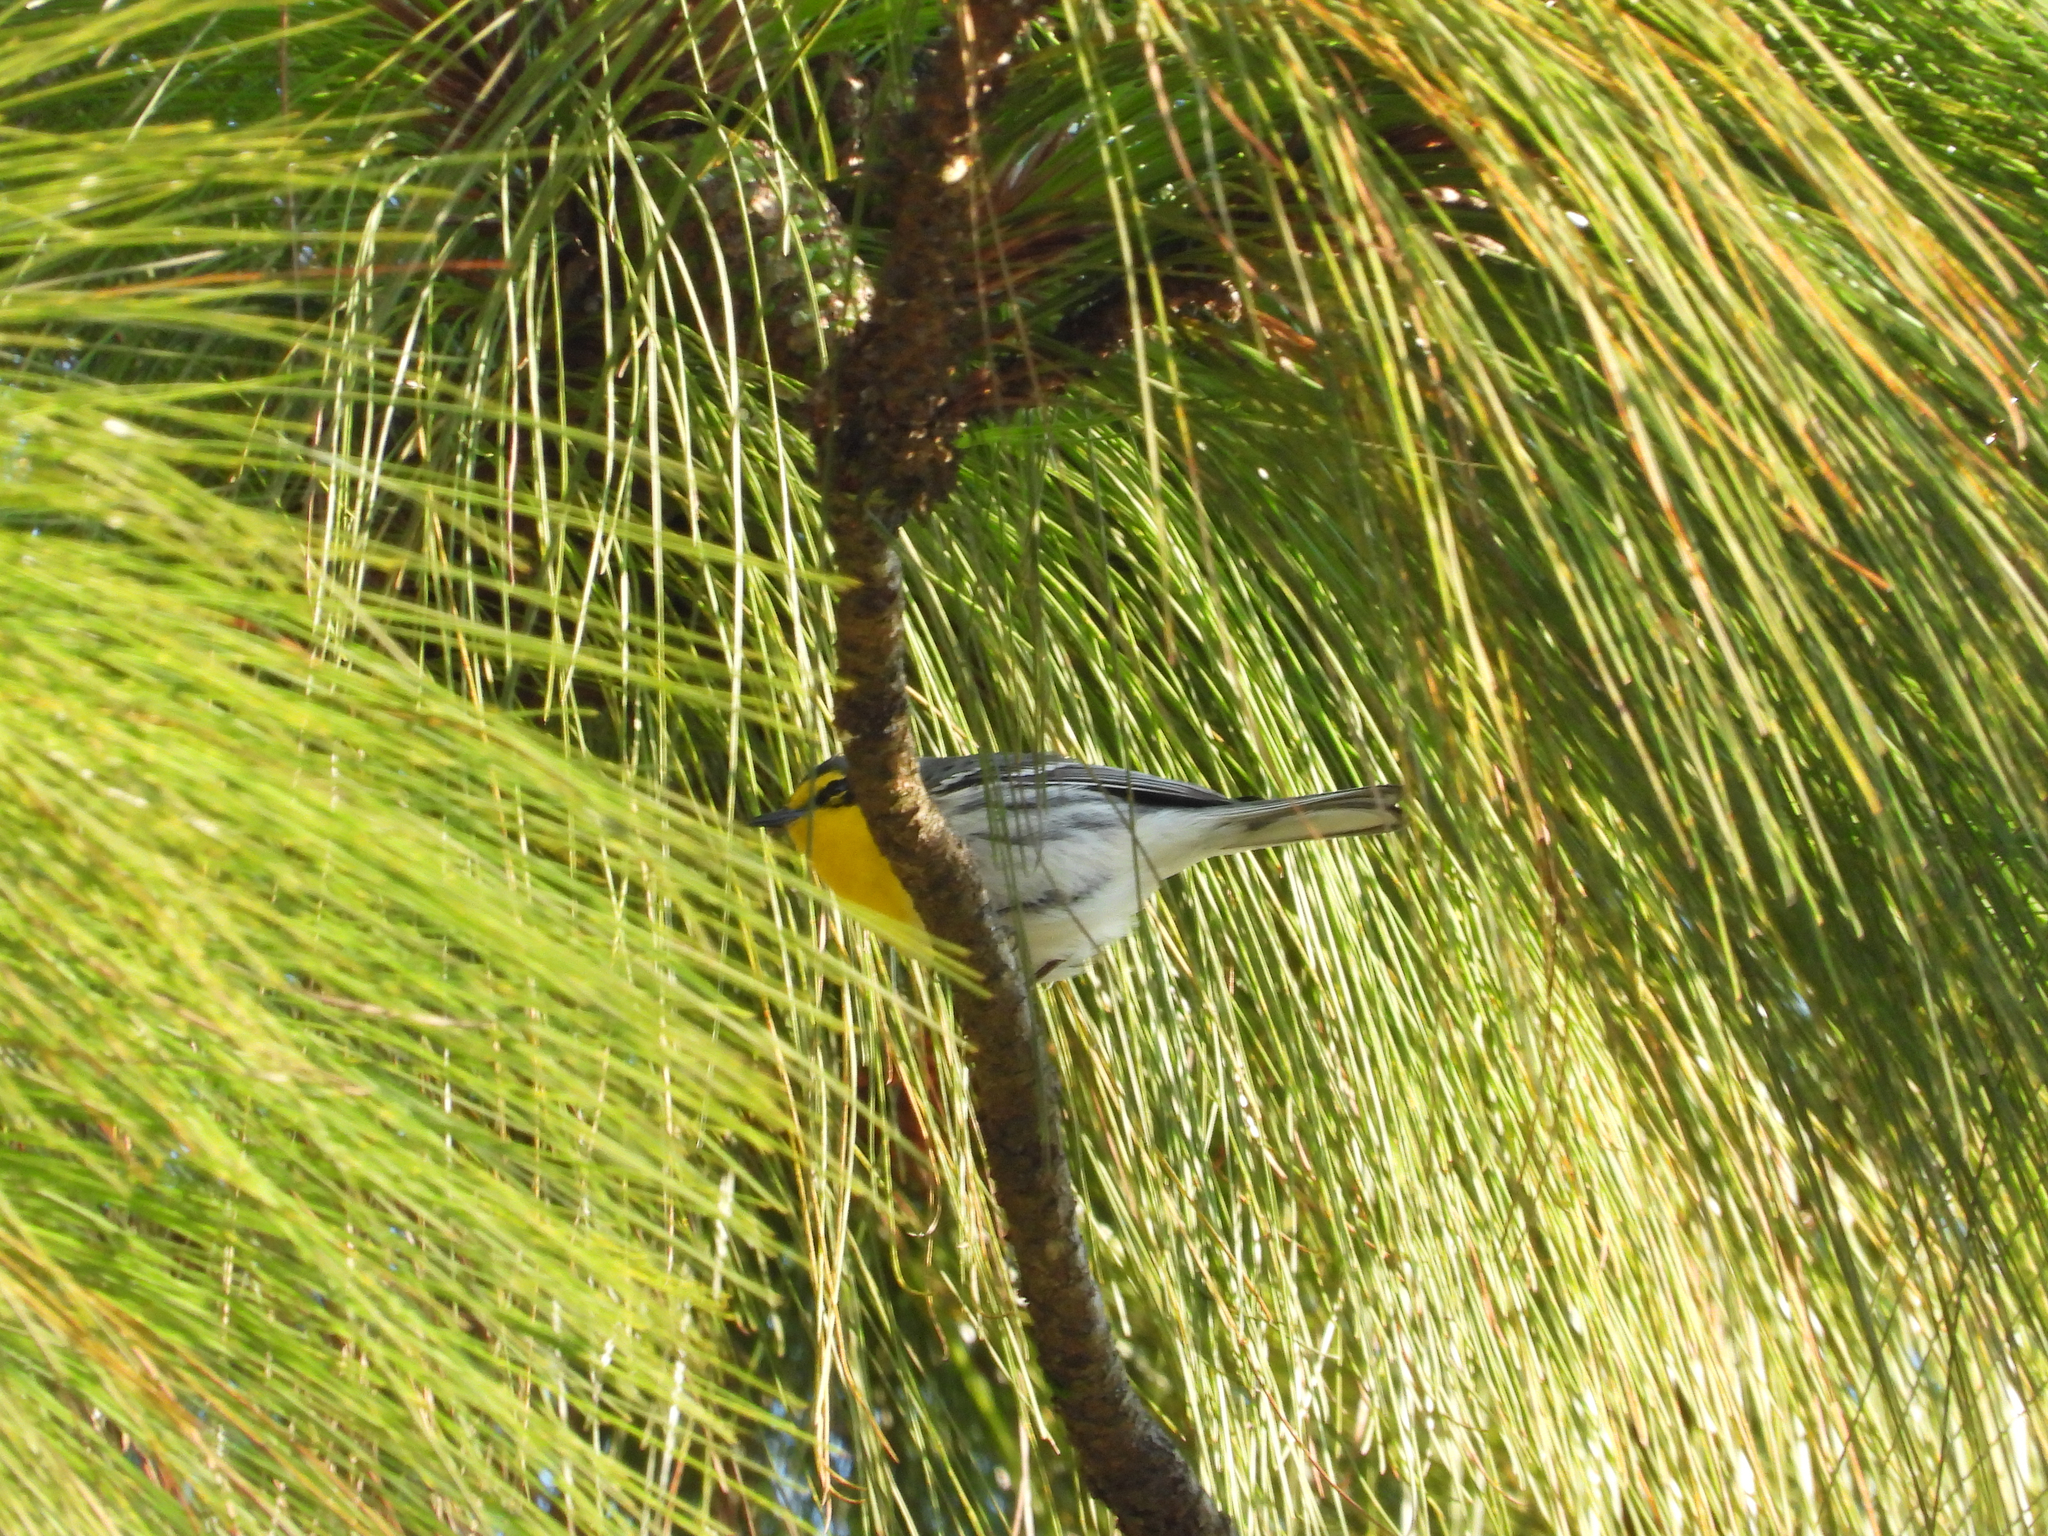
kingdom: Animalia
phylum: Chordata
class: Aves
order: Passeriformes
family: Parulidae
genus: Setophaga
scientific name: Setophaga graciae
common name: Grace's warbler
